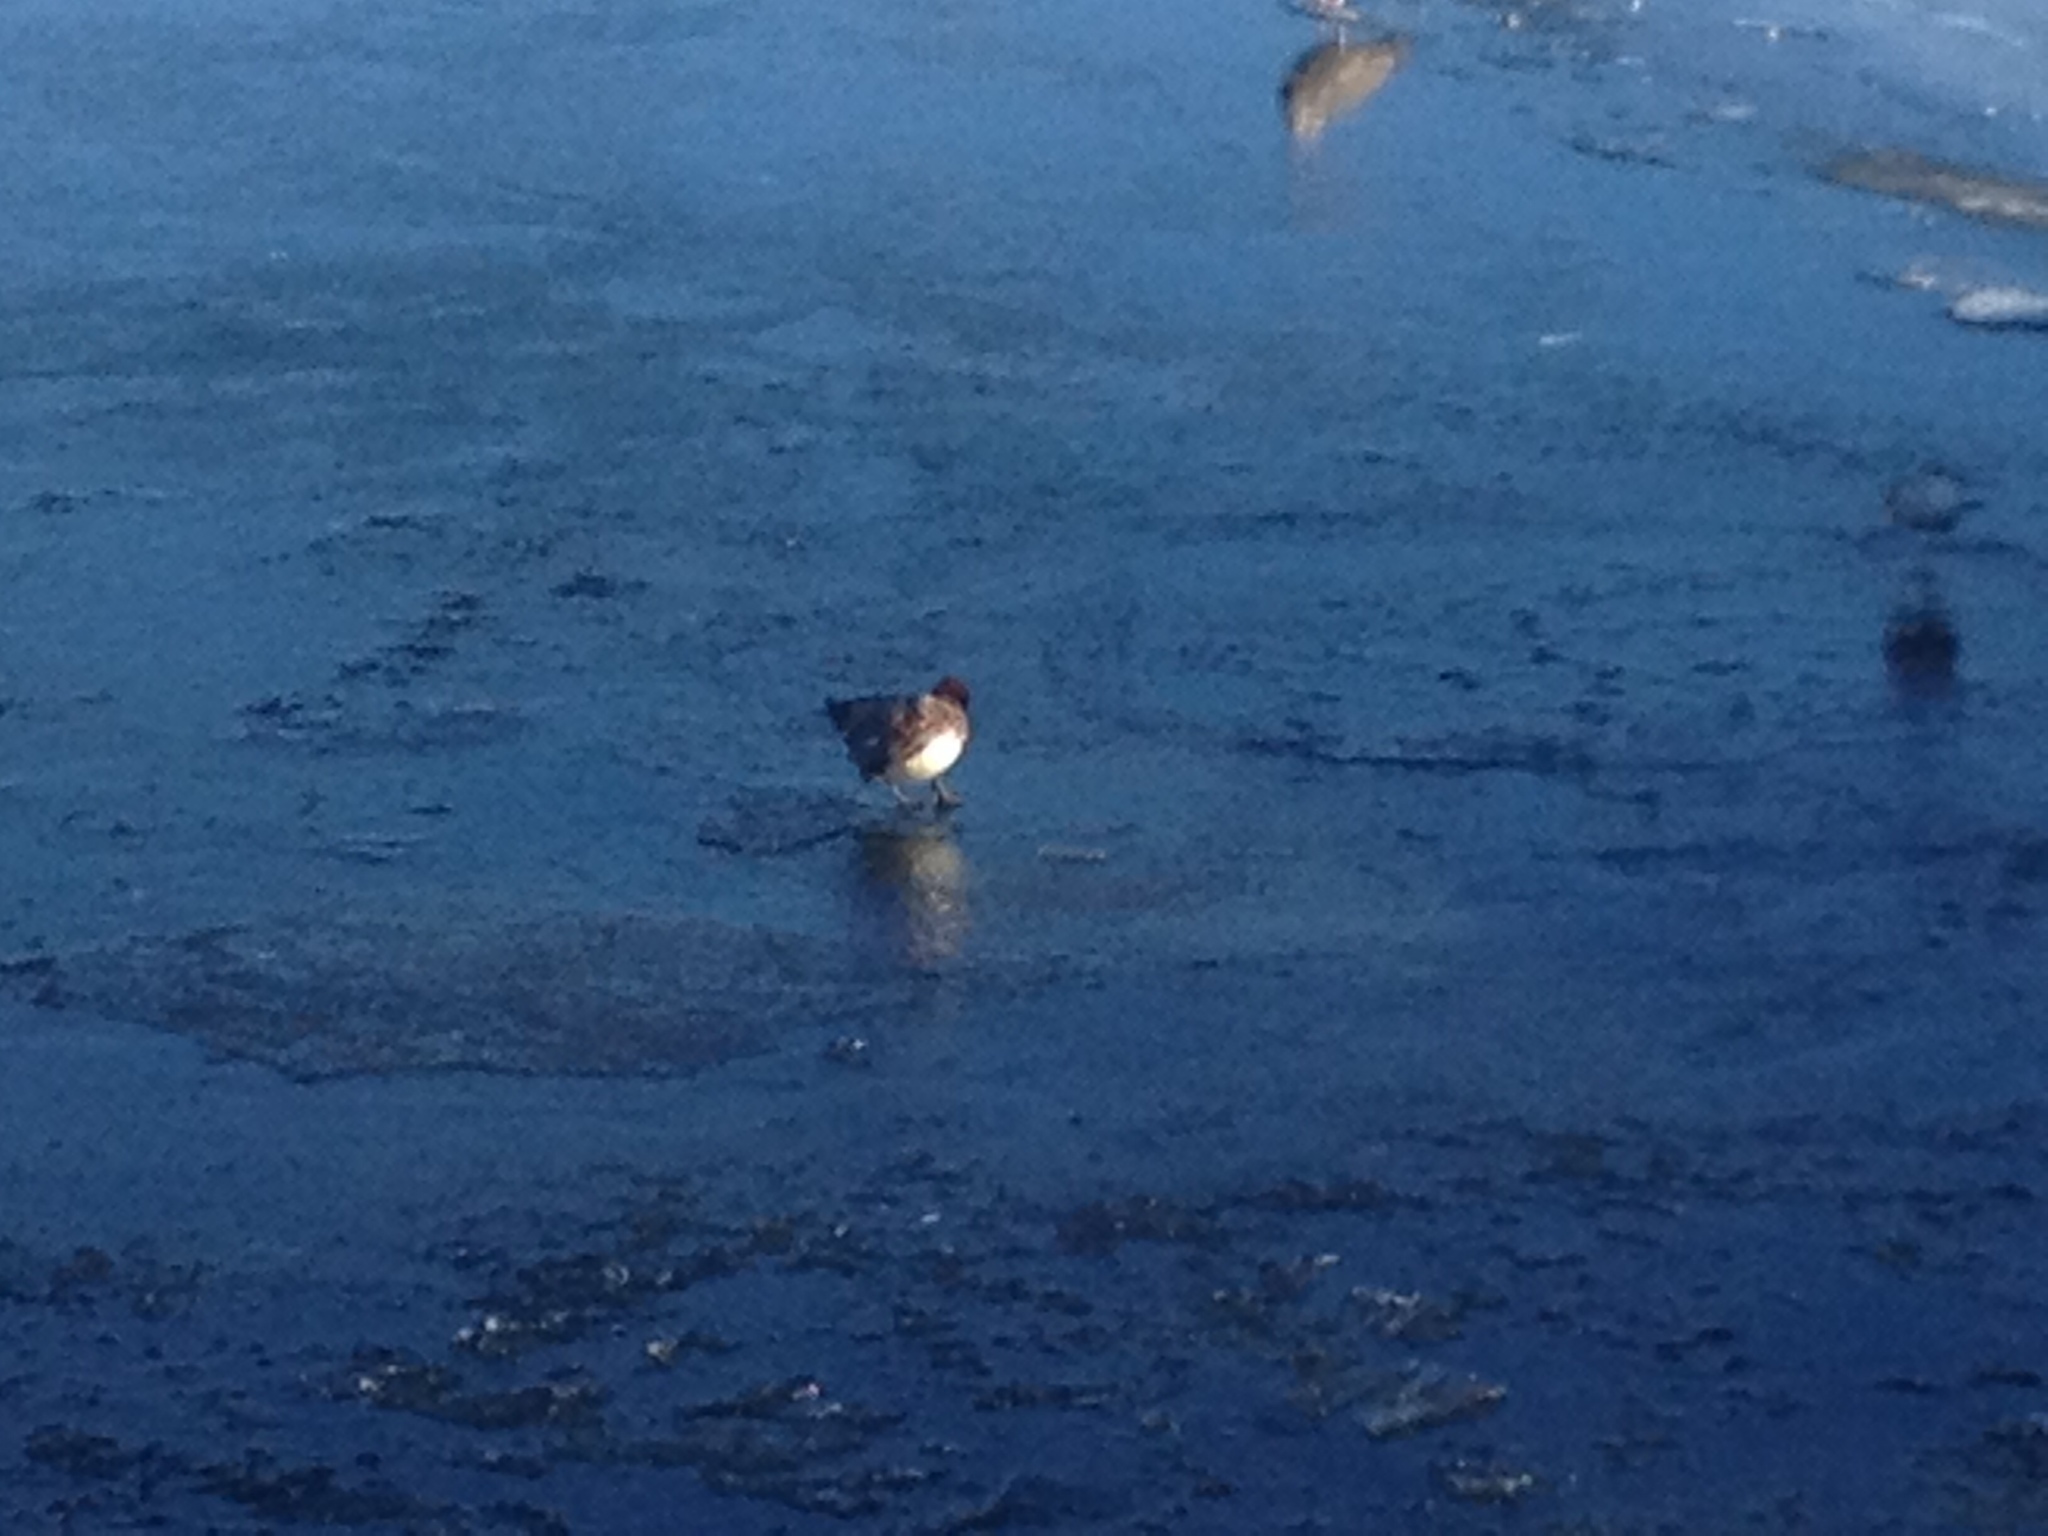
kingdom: Animalia
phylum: Chordata
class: Aves
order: Anseriformes
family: Anatidae
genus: Mareca
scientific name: Mareca penelope
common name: Eurasian wigeon
